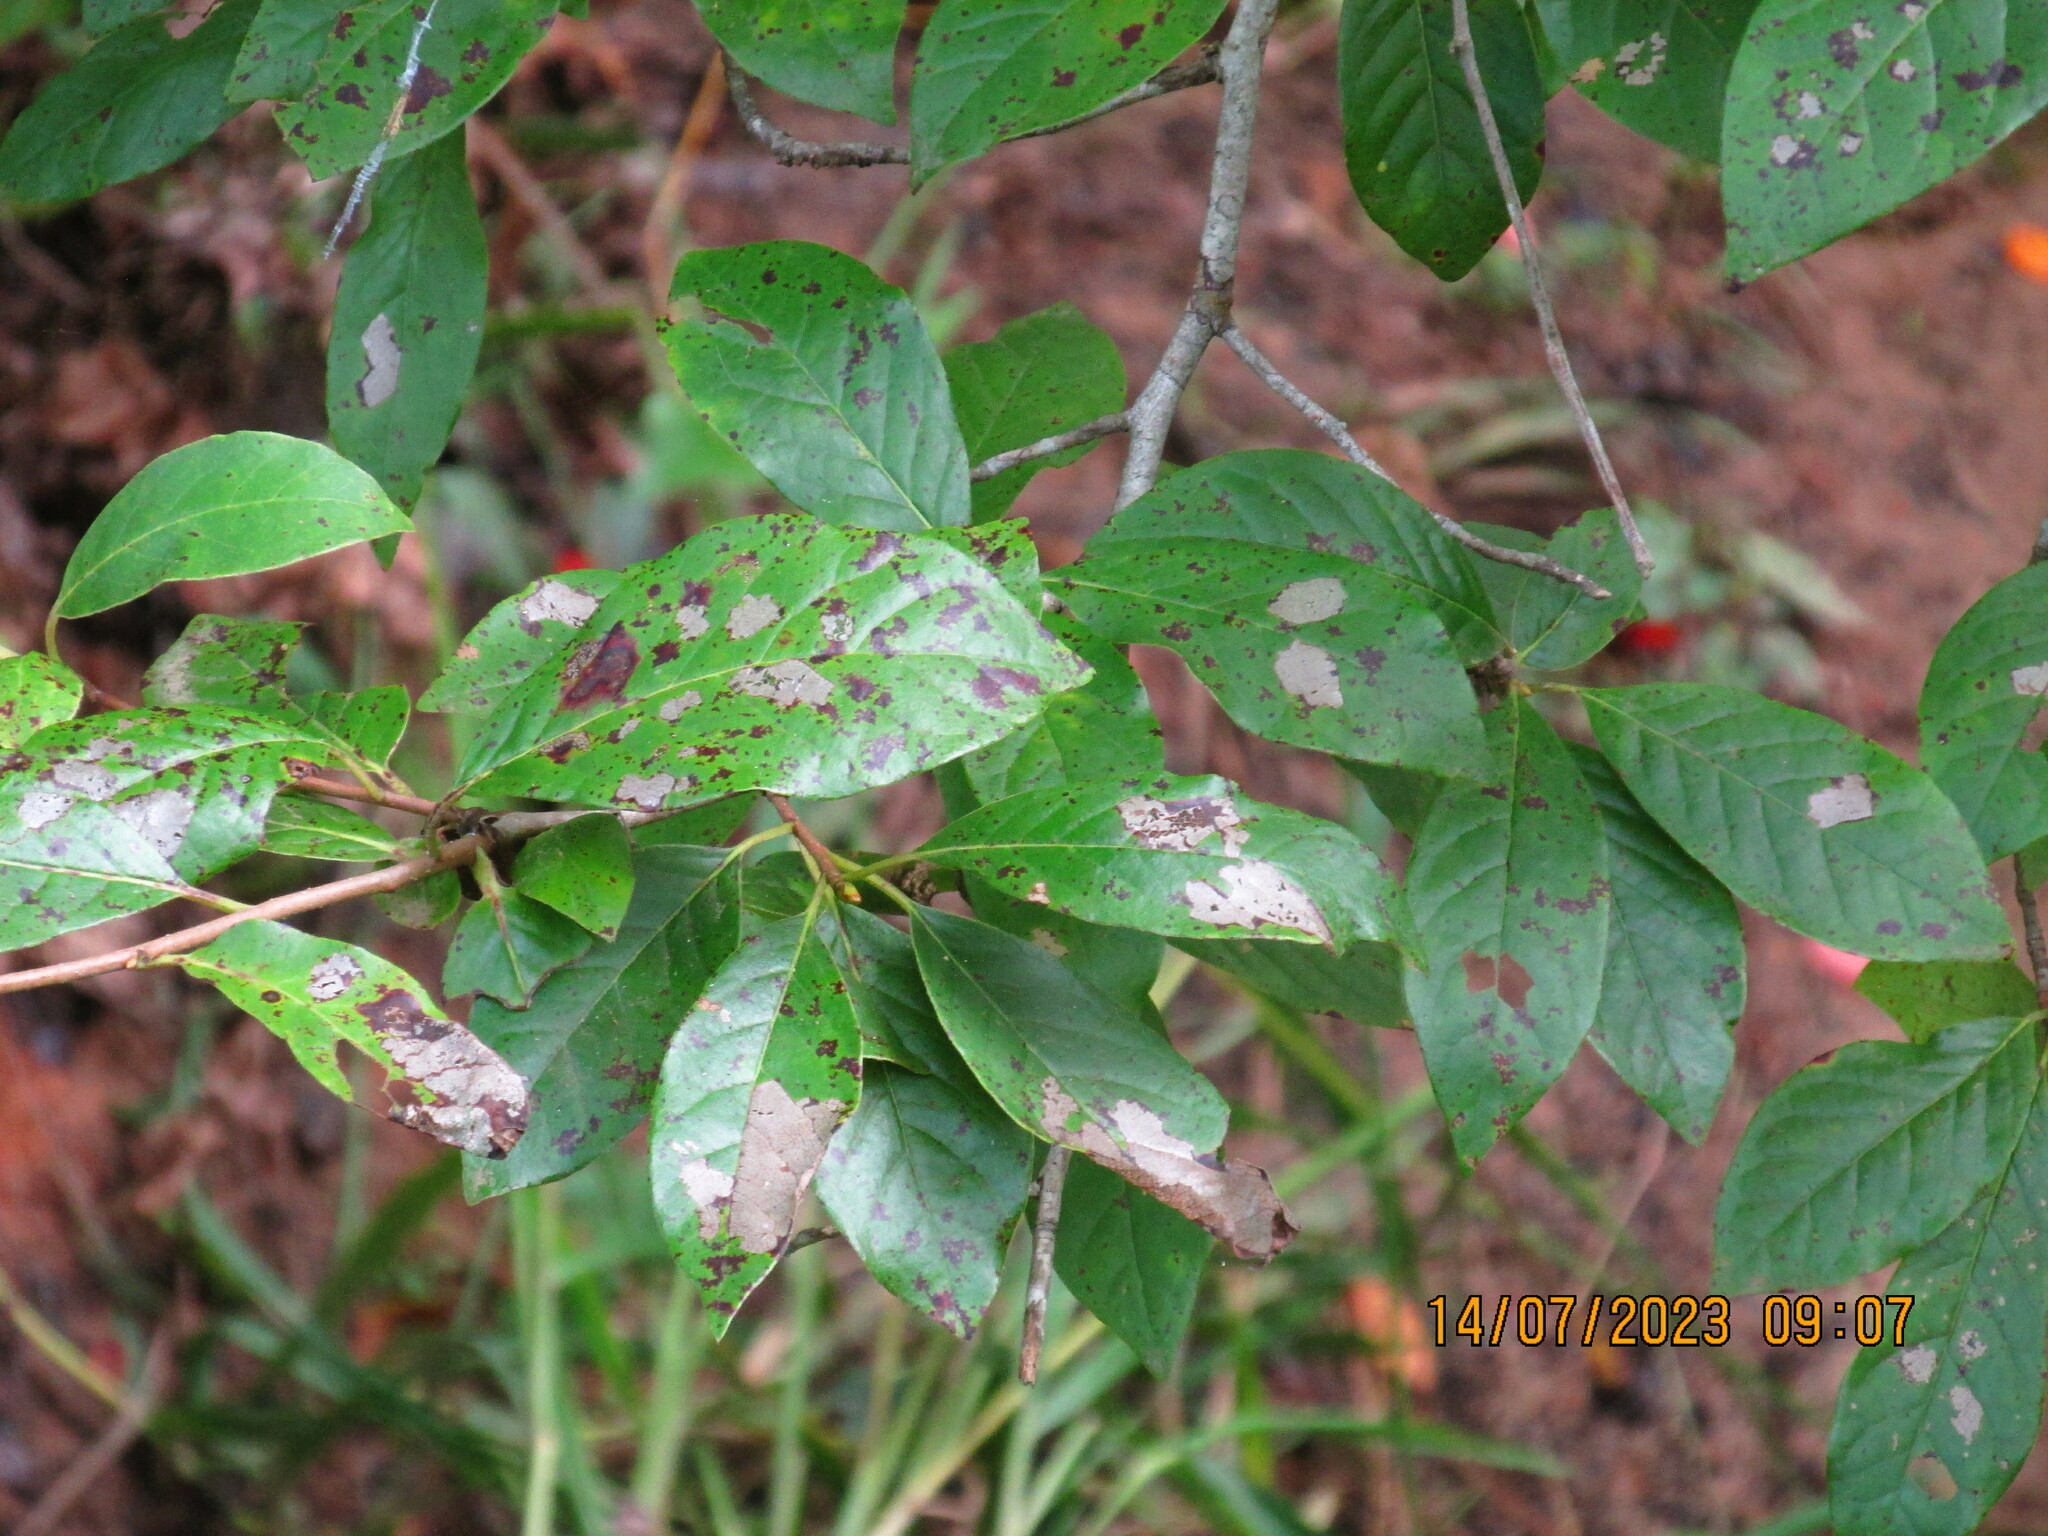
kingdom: Plantae
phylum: Tracheophyta
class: Magnoliopsida
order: Cornales
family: Nyssaceae
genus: Nyssa
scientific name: Nyssa sylvatica
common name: Black tupelo
